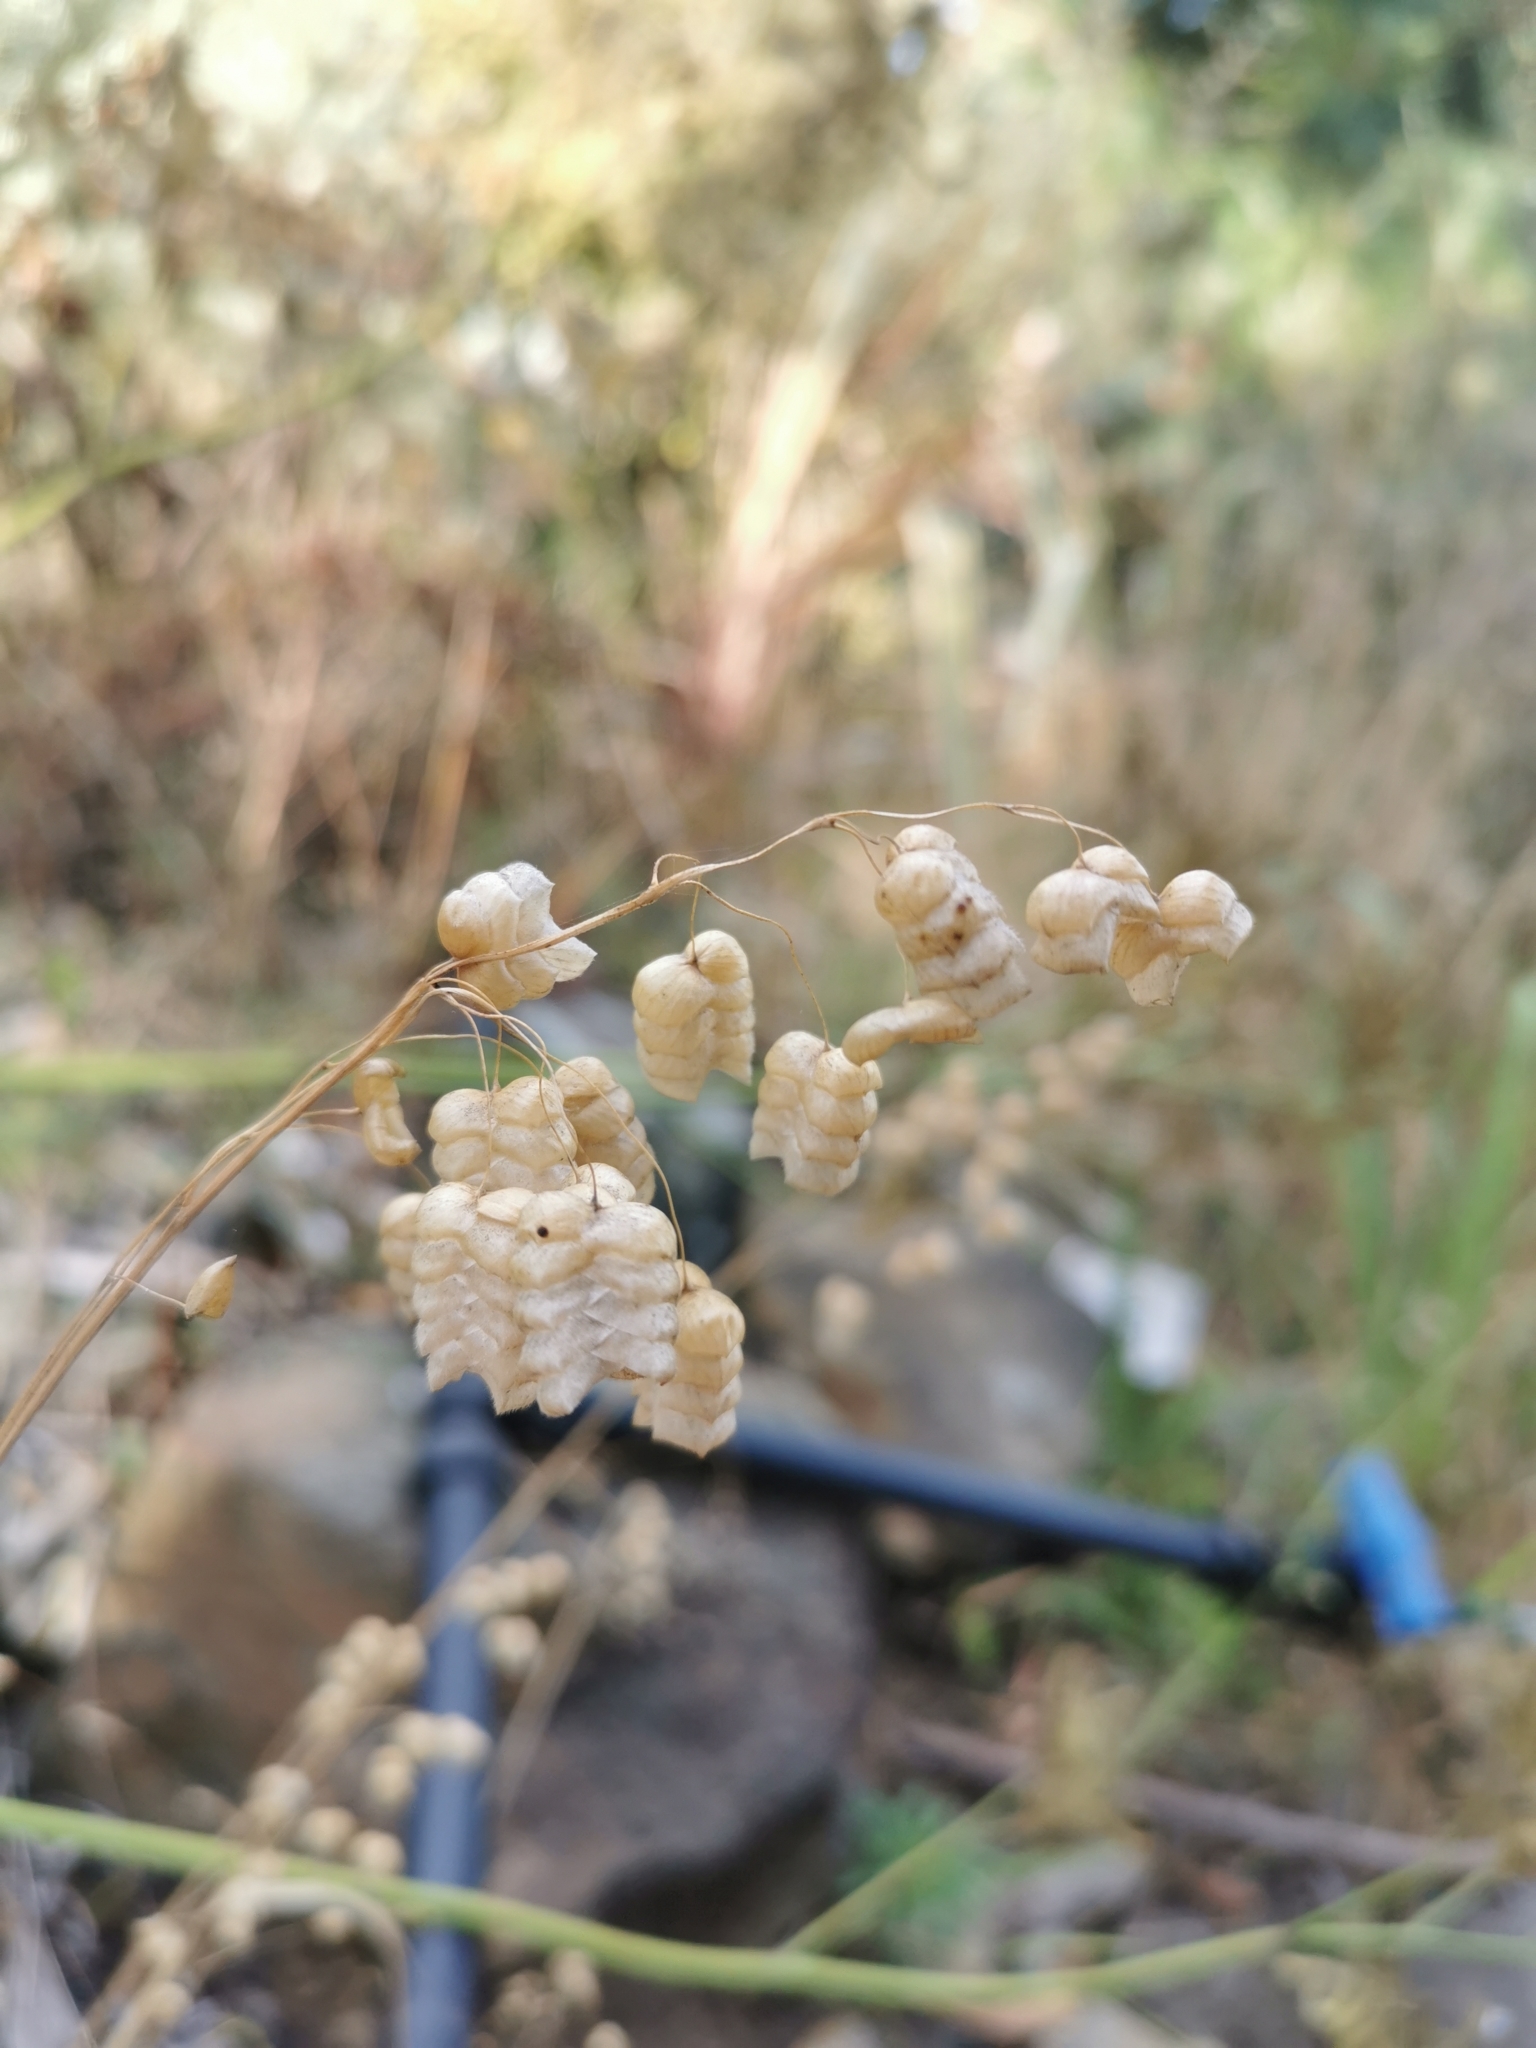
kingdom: Plantae
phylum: Tracheophyta
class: Liliopsida
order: Poales
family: Poaceae
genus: Briza
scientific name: Briza maxima
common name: Big quakinggrass
